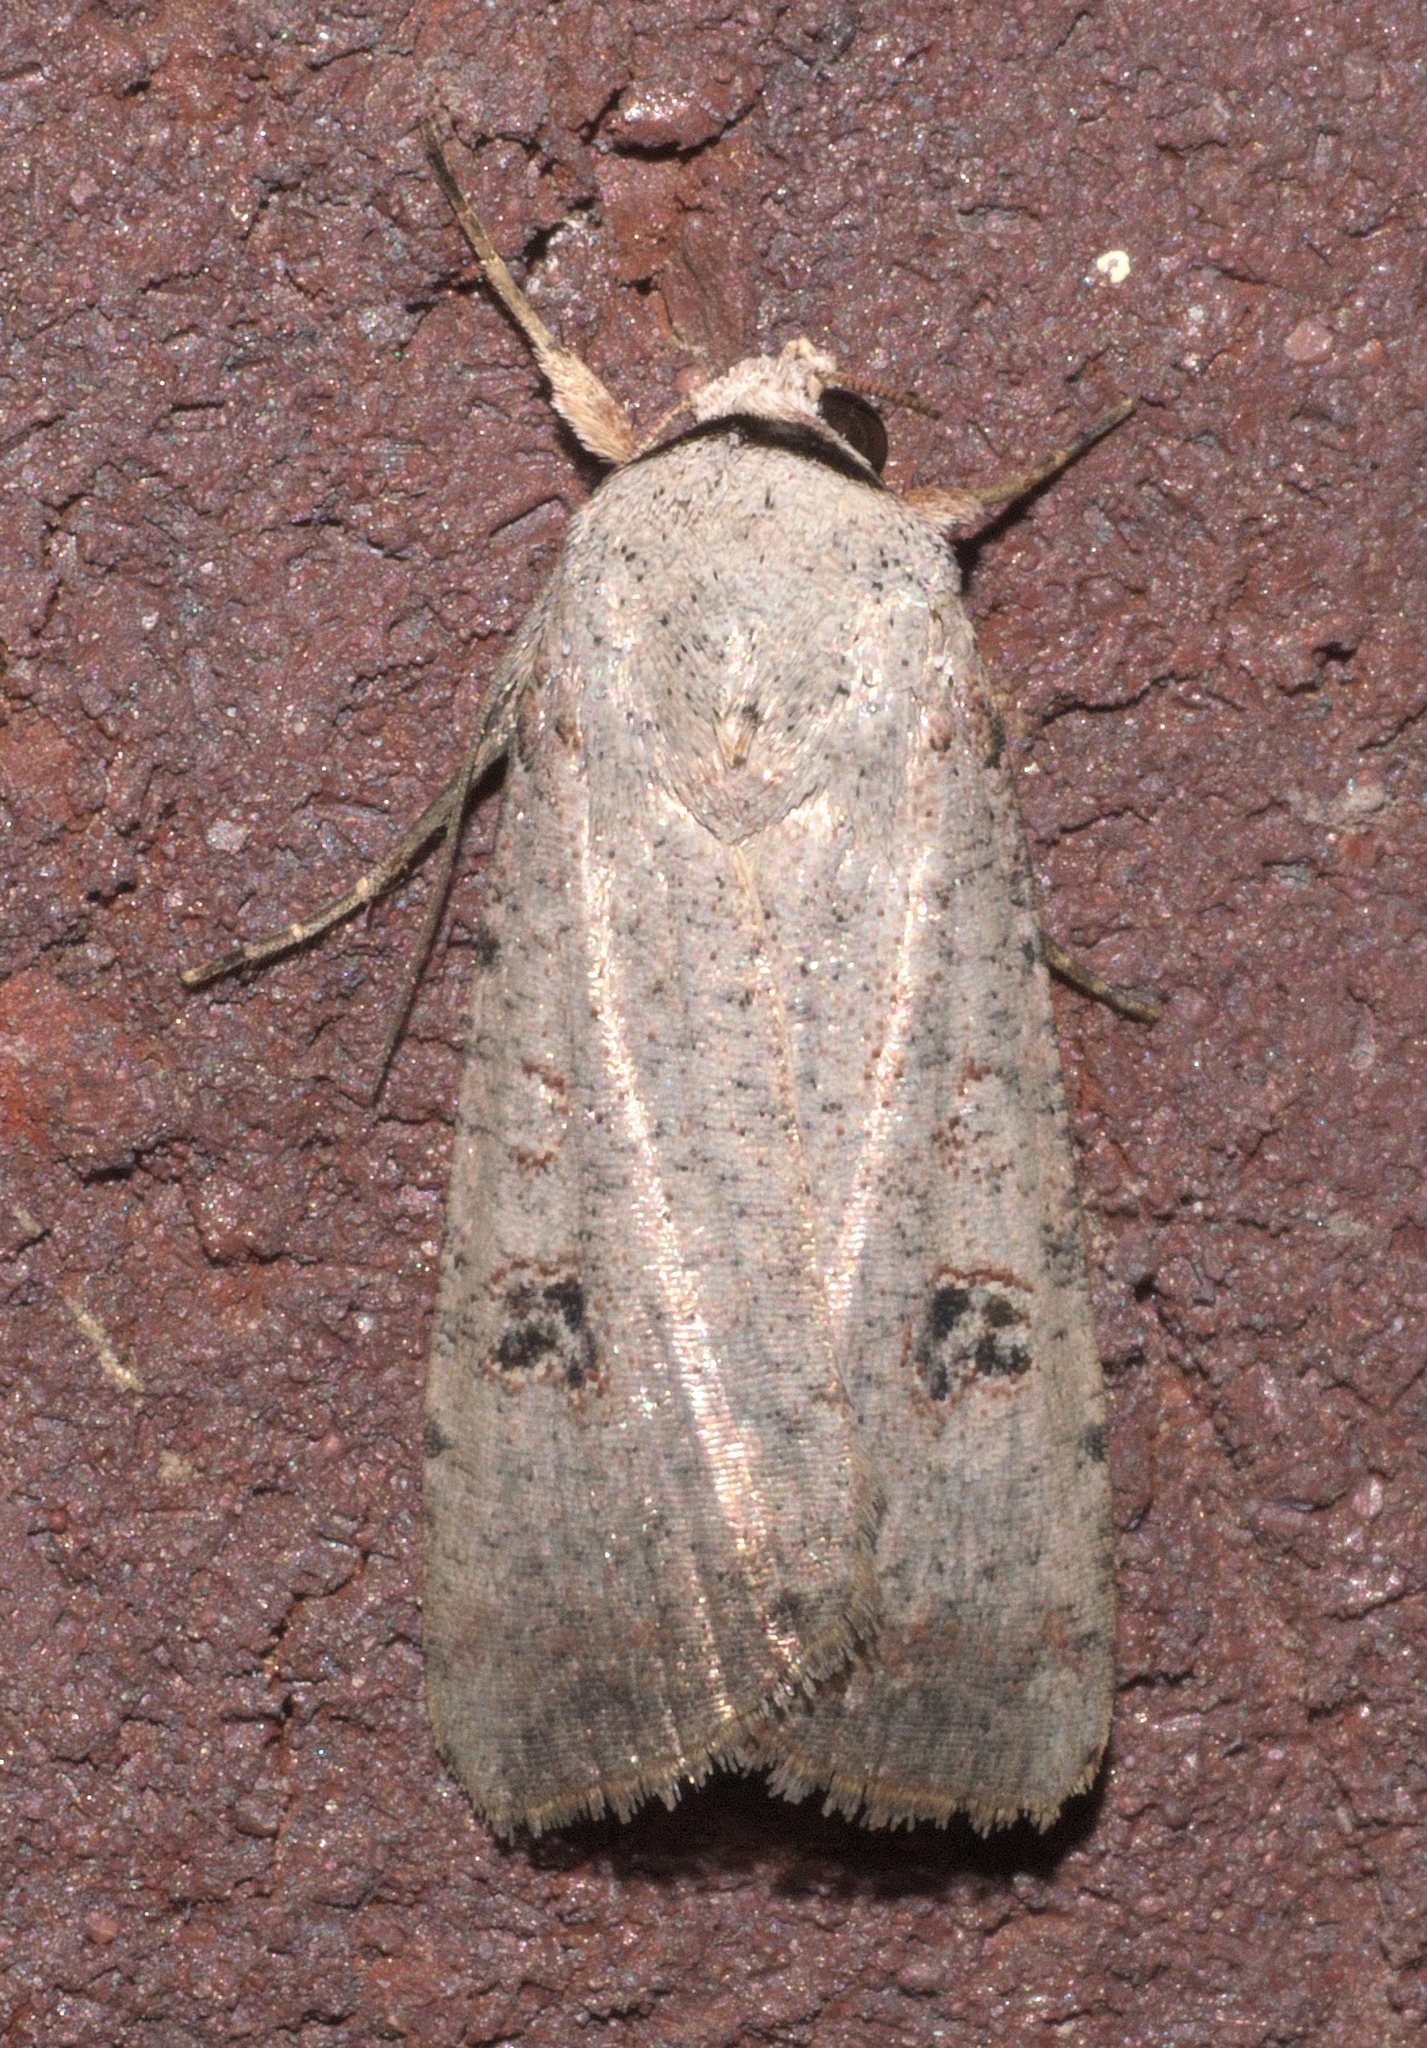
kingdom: Animalia
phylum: Arthropoda
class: Insecta
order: Lepidoptera
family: Noctuidae
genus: Anicla
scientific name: Anicla infecta
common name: Green cutworm
